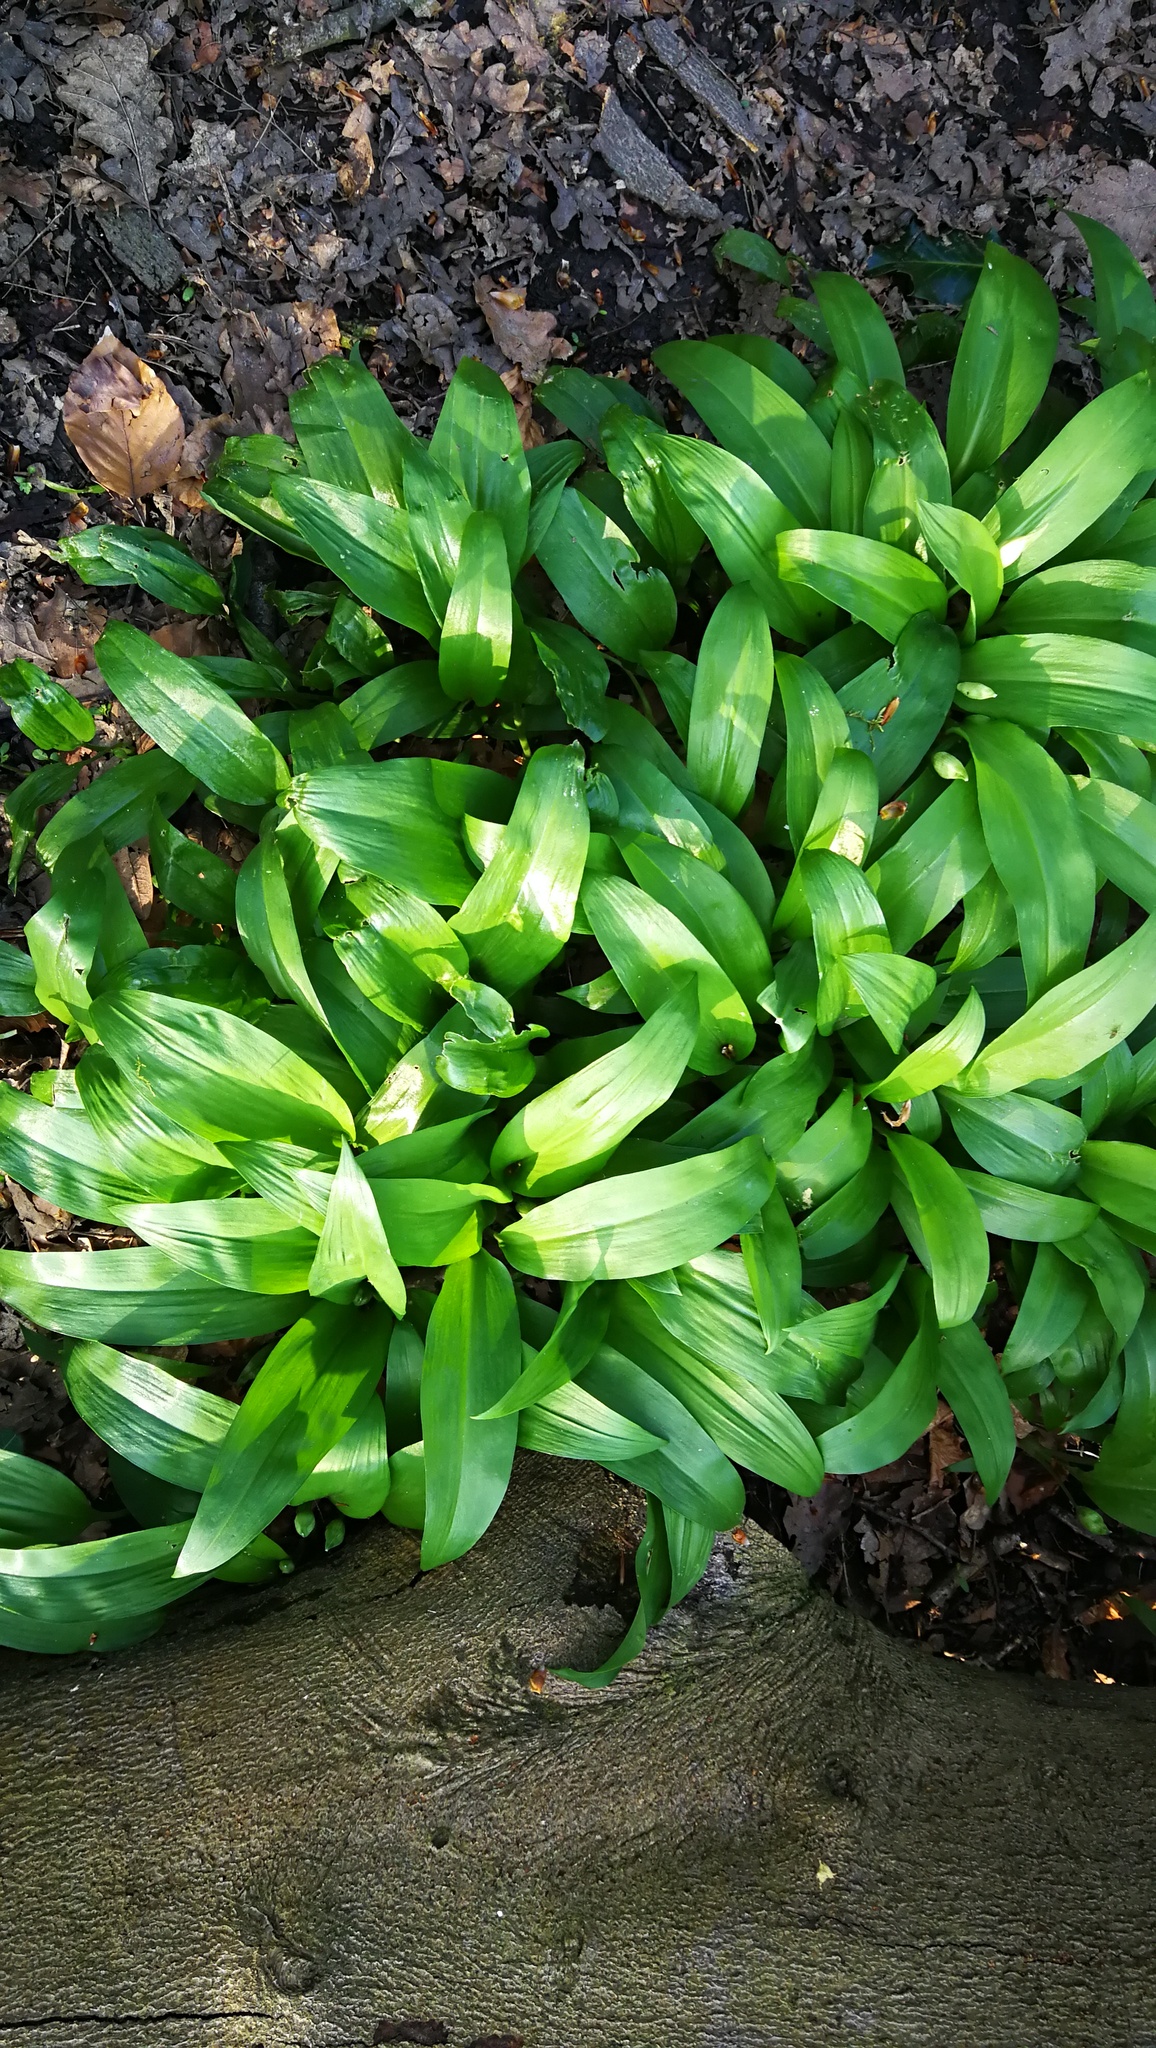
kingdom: Plantae
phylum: Tracheophyta
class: Liliopsida
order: Asparagales
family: Amaryllidaceae
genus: Allium
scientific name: Allium ursinum
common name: Ramsons
